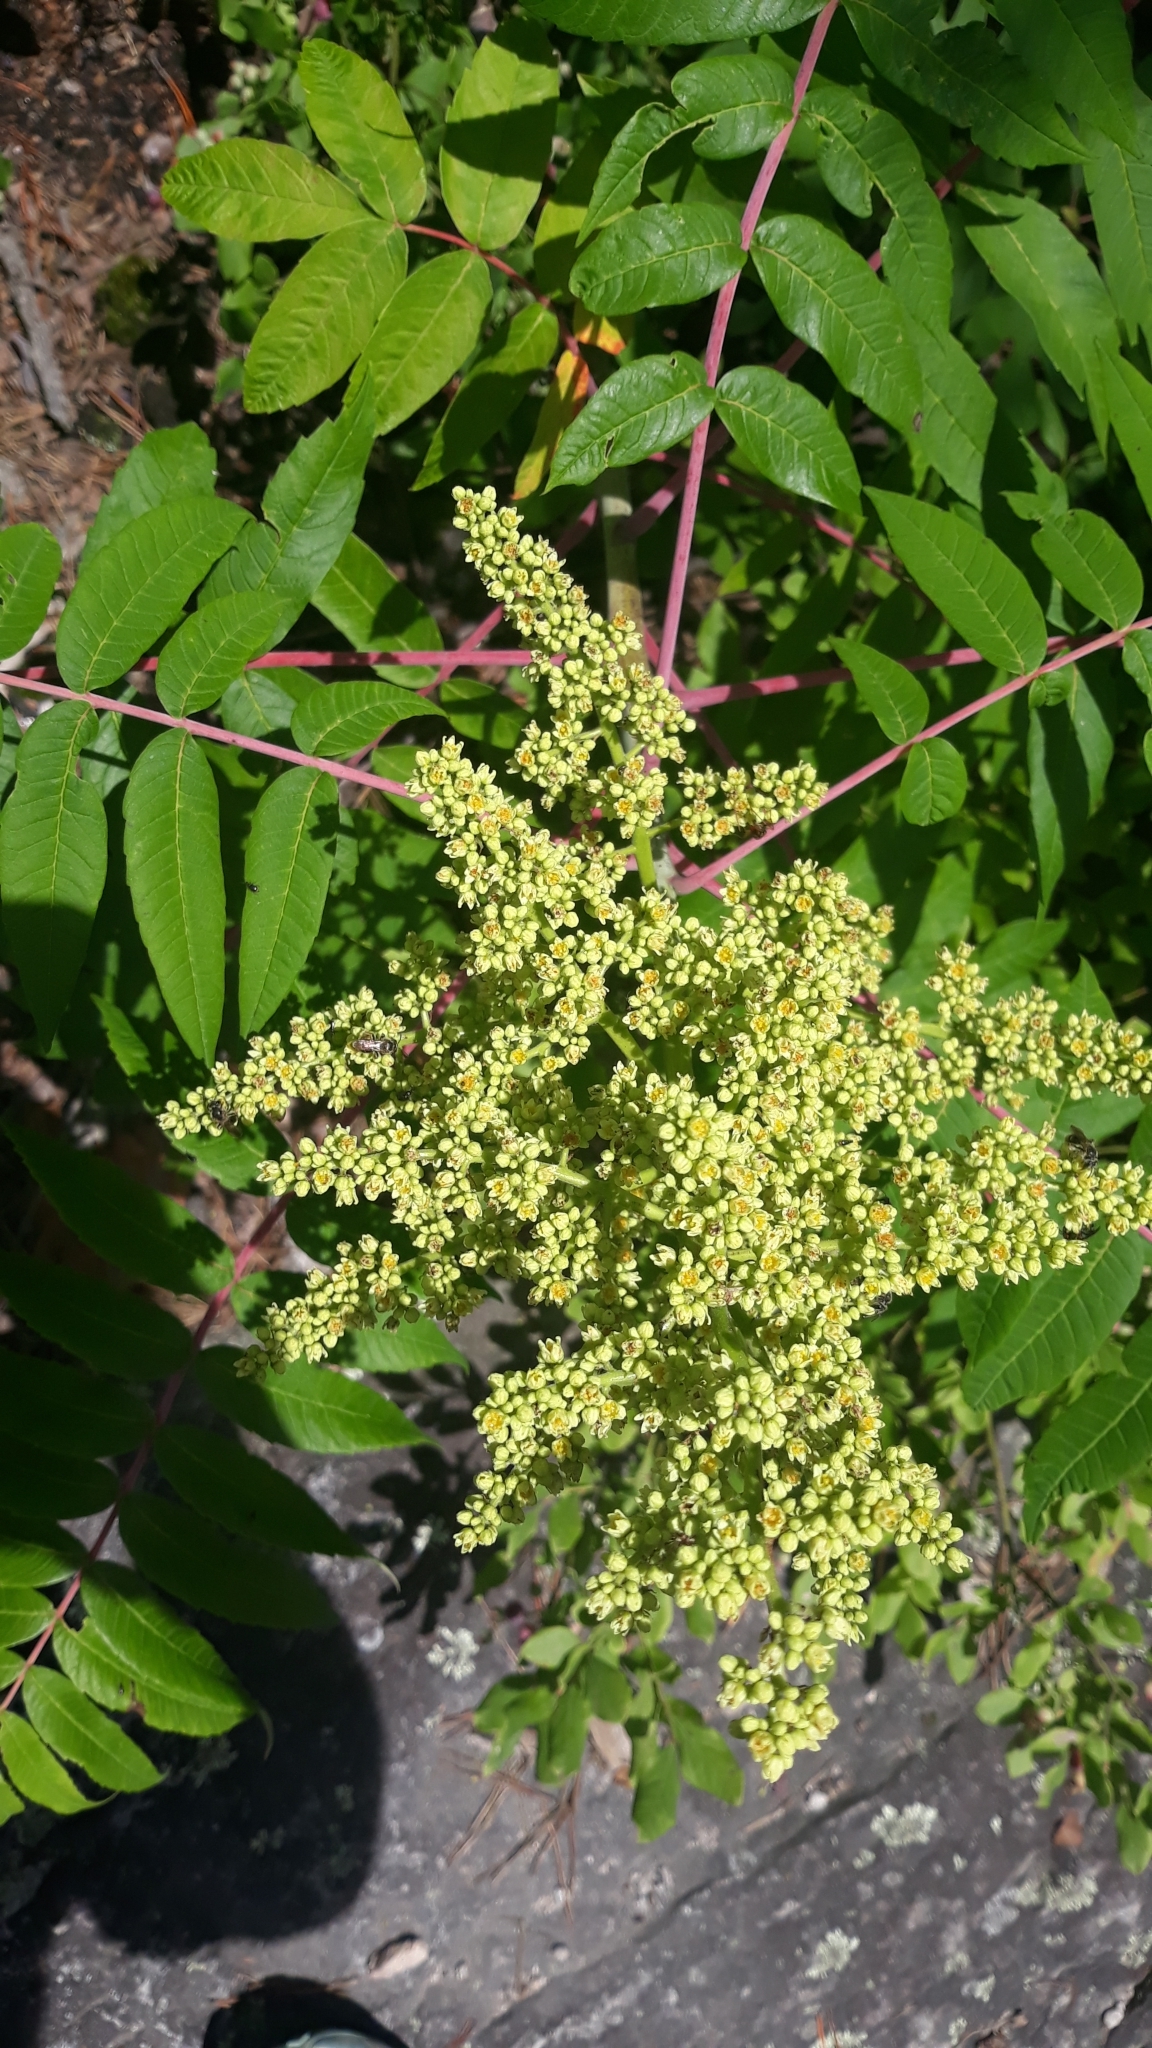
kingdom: Plantae
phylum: Tracheophyta
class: Magnoliopsida
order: Sapindales
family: Anacardiaceae
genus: Rhus
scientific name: Rhus glabra
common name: Scarlet sumac
